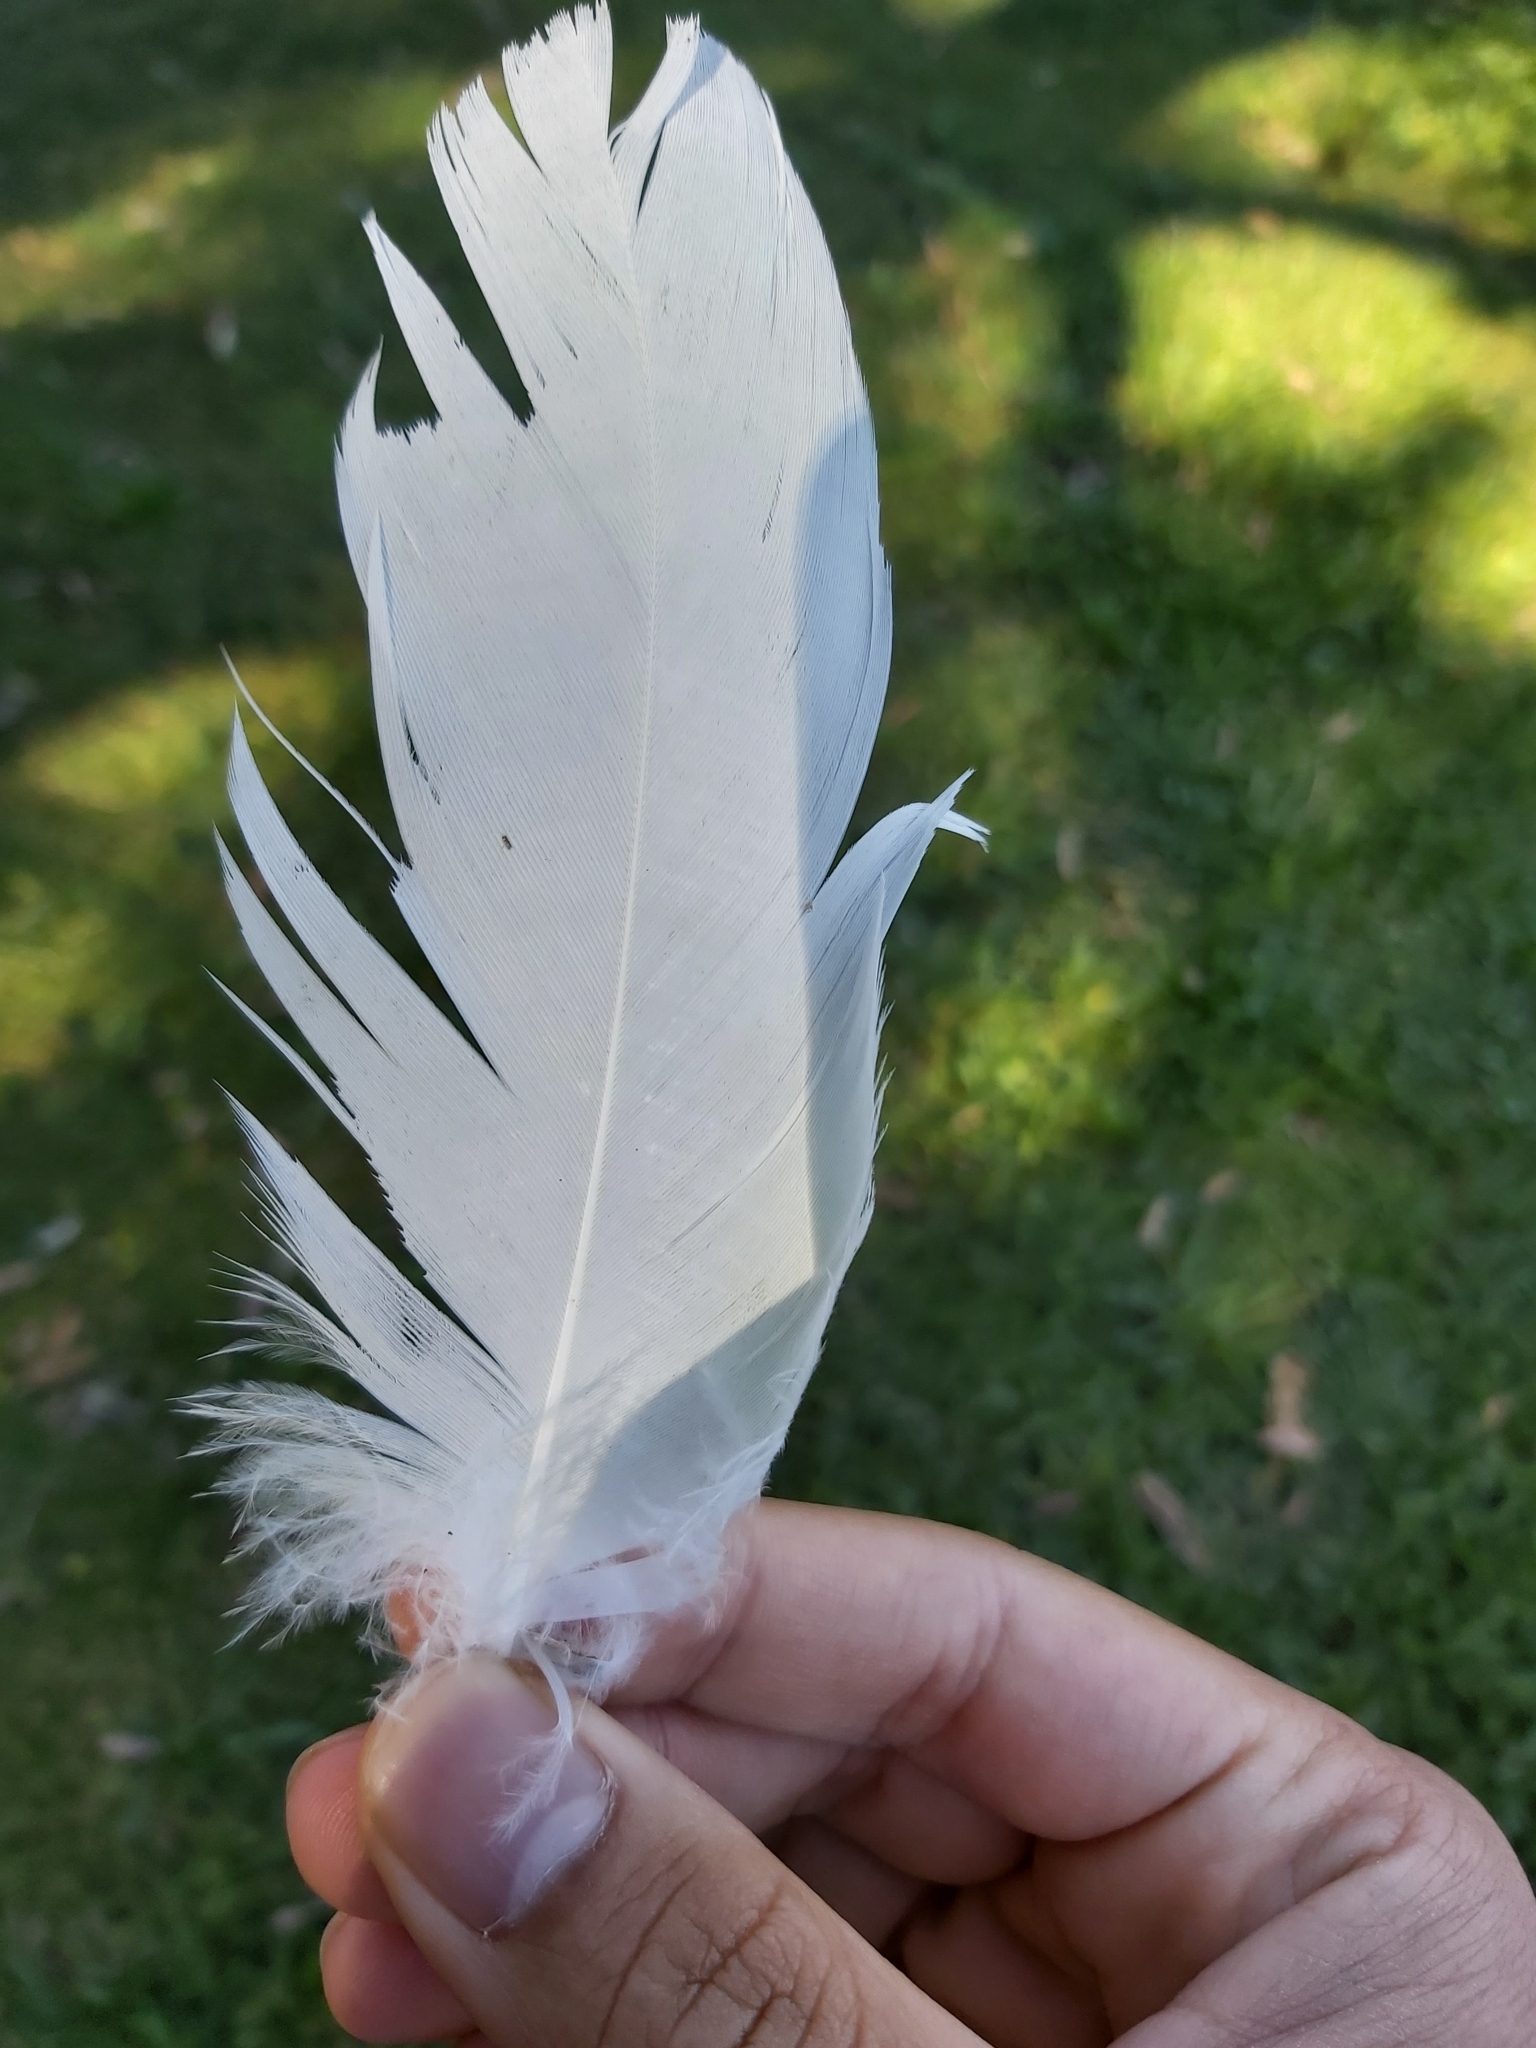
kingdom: Animalia
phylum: Chordata
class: Aves
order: Psittaciformes
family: Psittacidae
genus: Cacatua
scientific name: Cacatua galerita
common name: Sulphur-crested cockatoo
